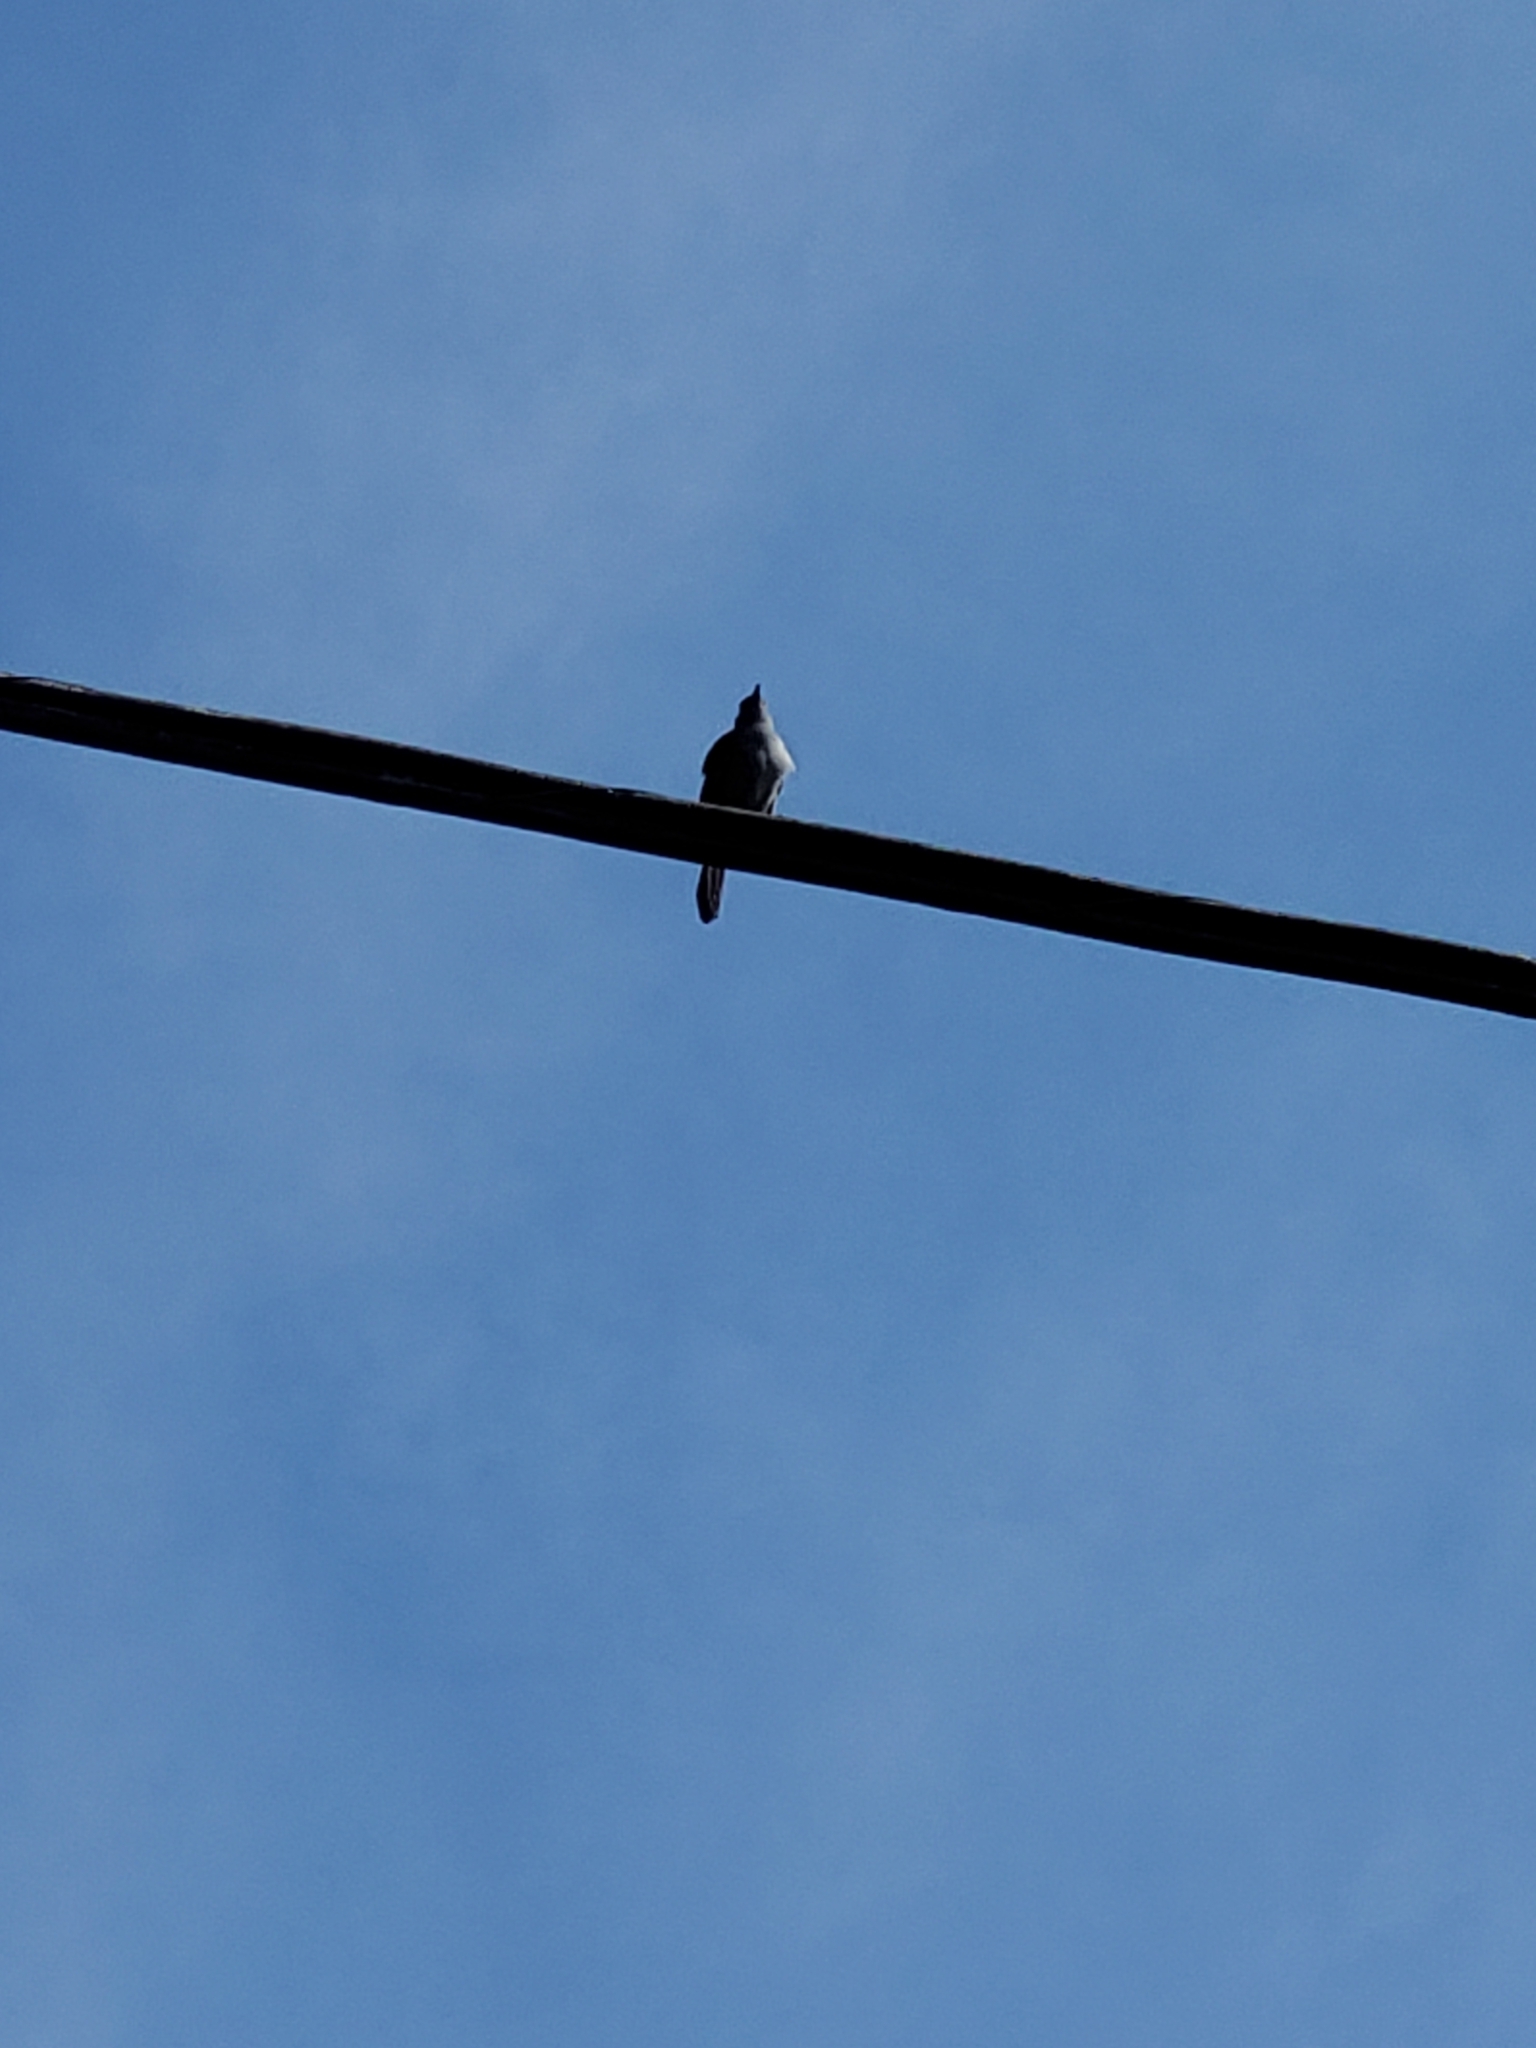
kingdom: Animalia
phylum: Chordata
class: Aves
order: Passeriformes
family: Mimidae
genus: Dumetella
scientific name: Dumetella carolinensis
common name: Gray catbird
